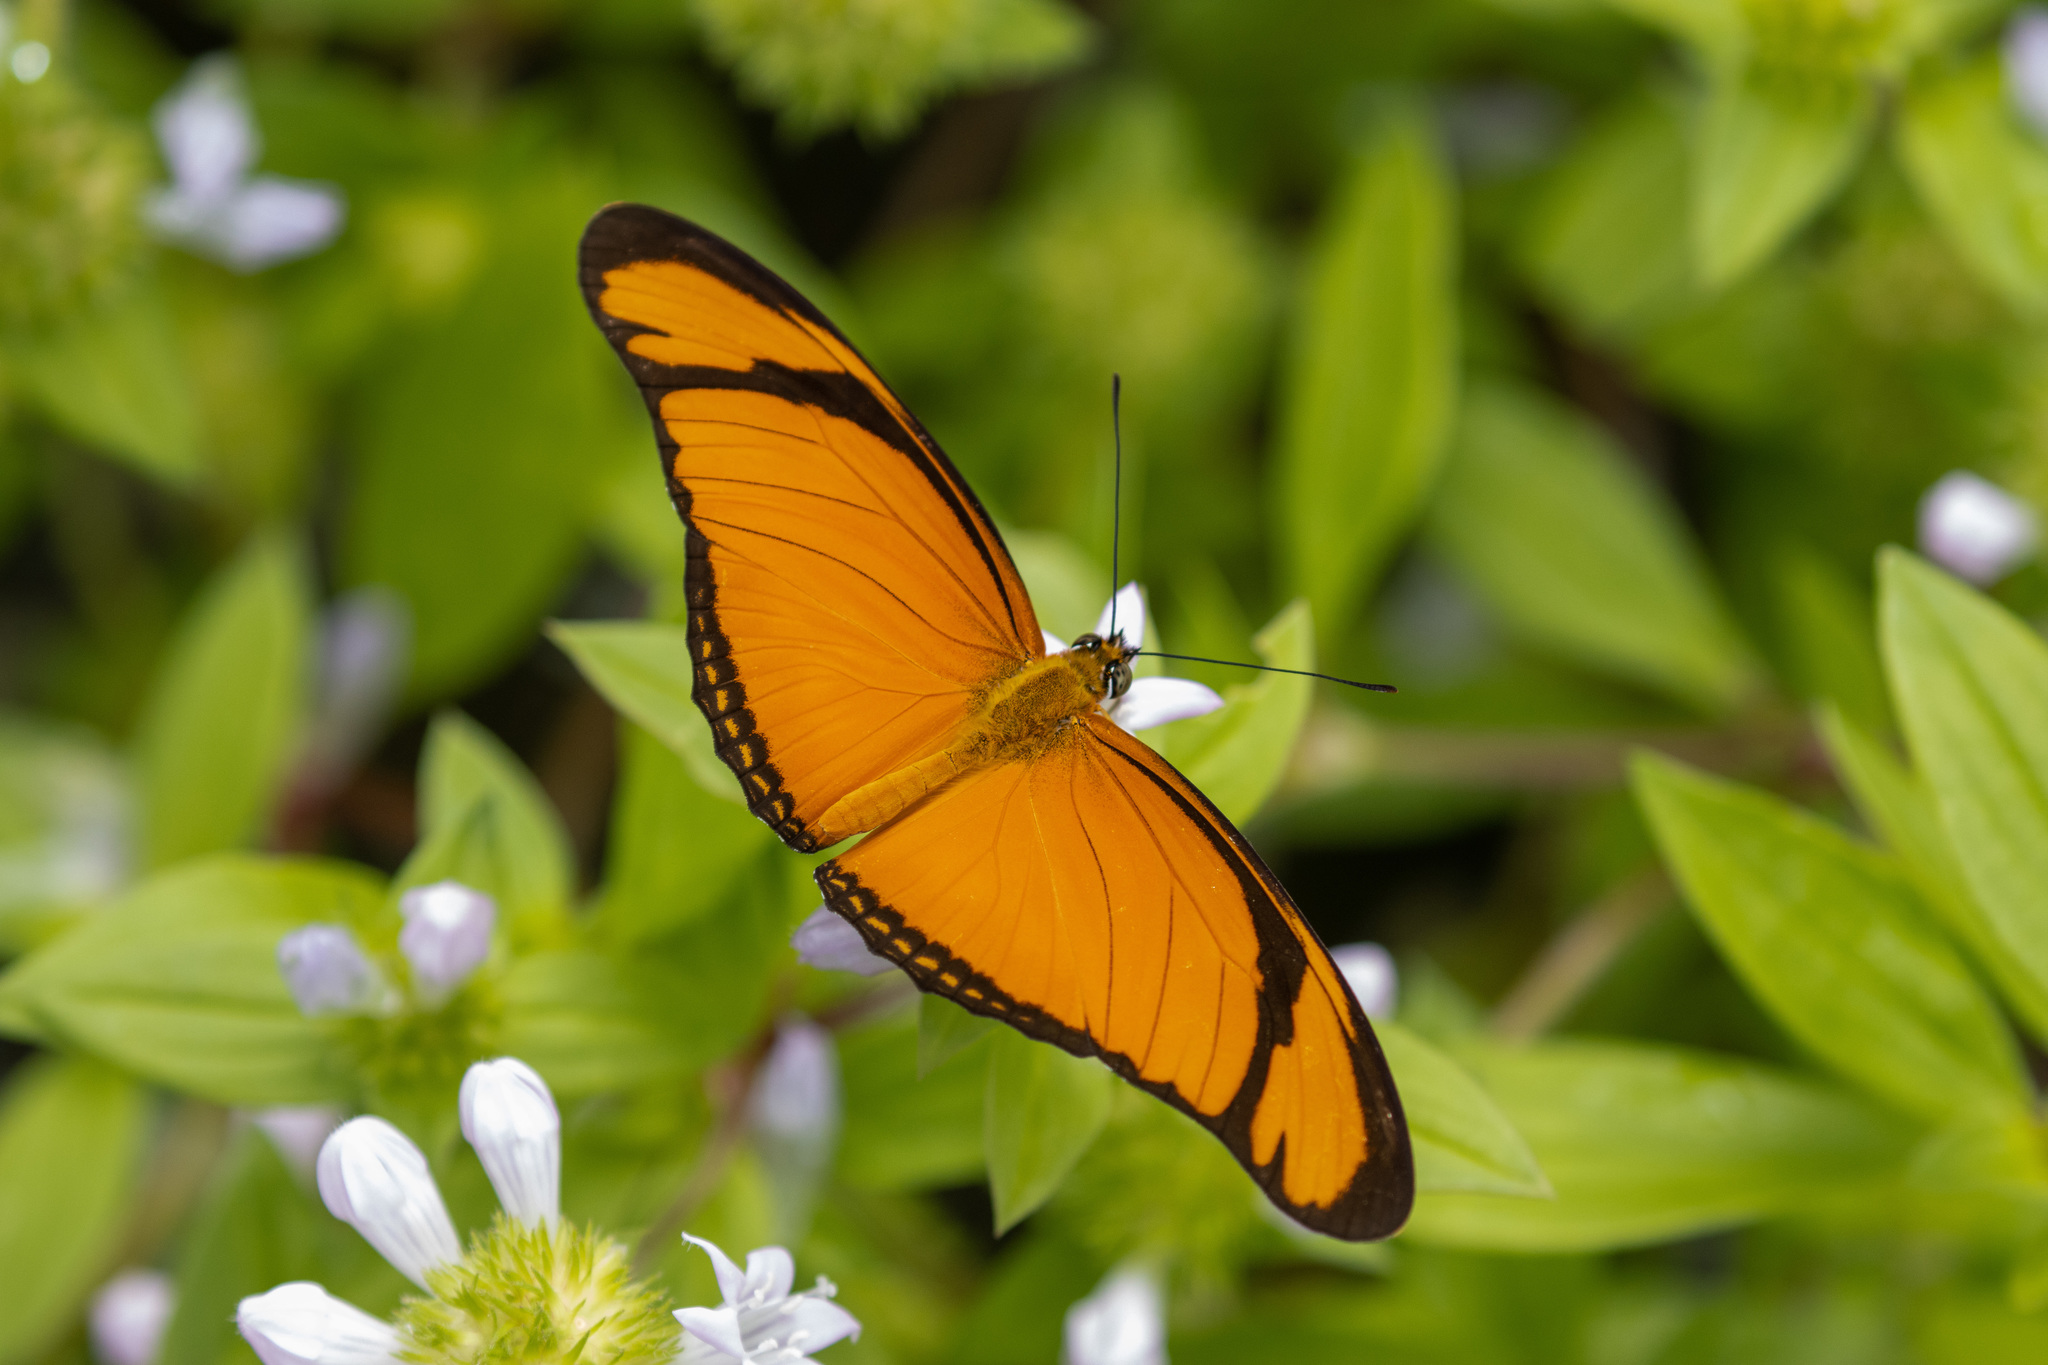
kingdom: Animalia
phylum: Arthropoda
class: Insecta
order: Lepidoptera
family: Nymphalidae
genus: Dryas
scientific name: Dryas iulia
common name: Flambeau
